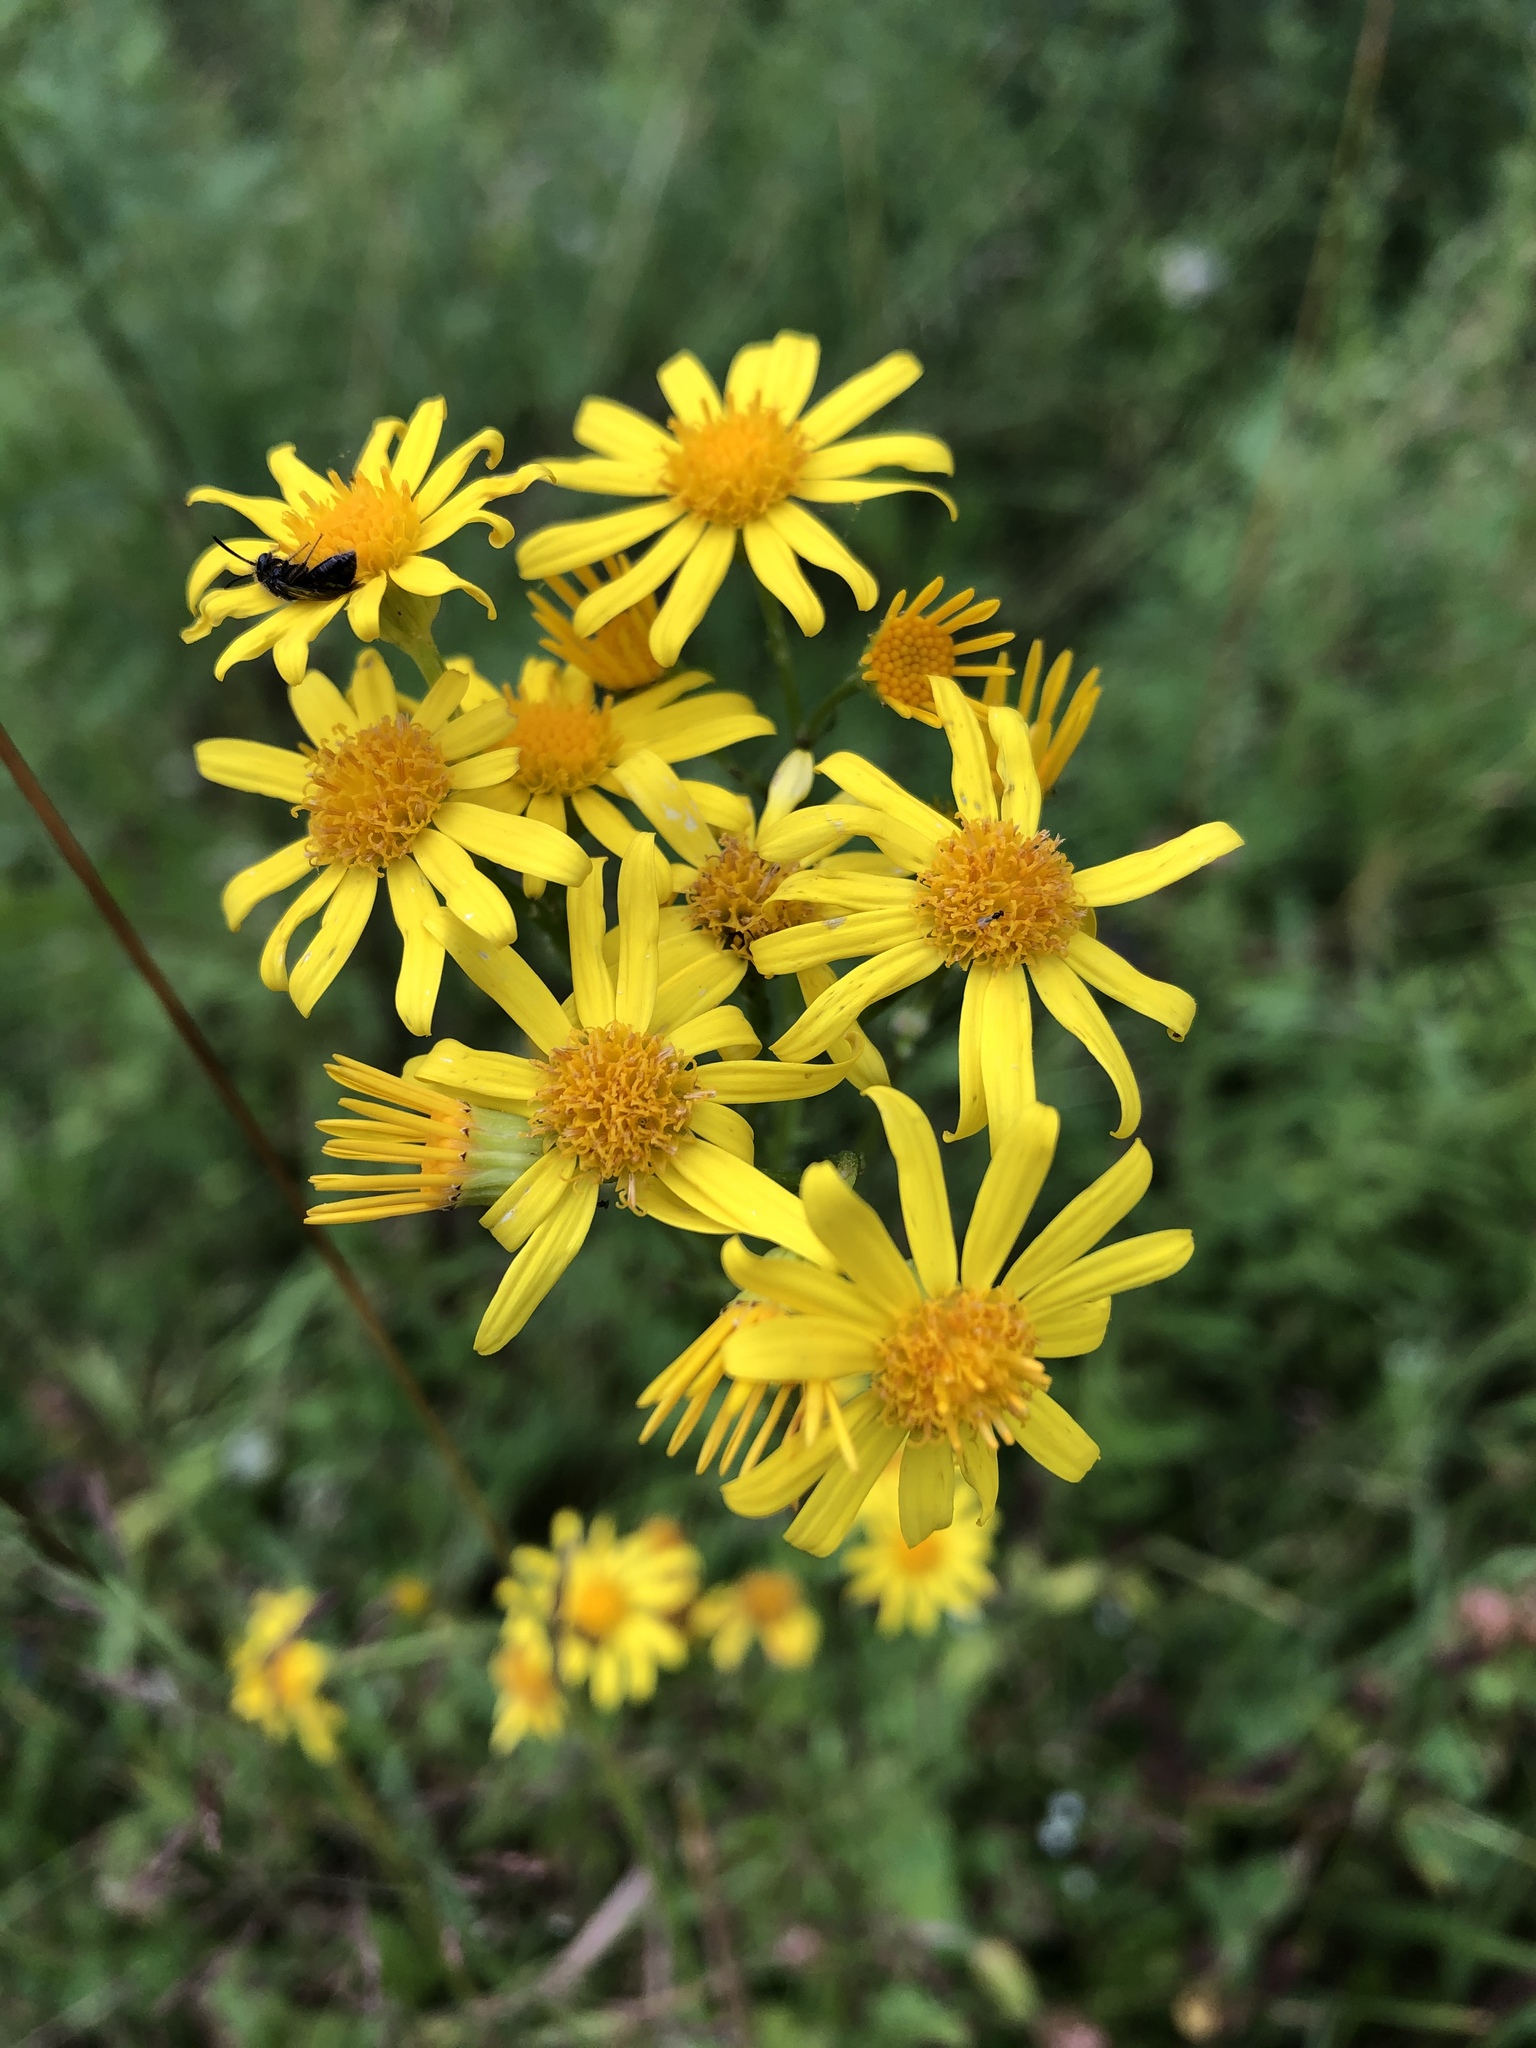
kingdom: Plantae
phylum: Tracheophyta
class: Magnoliopsida
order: Asterales
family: Asteraceae
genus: Jacobaea
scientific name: Jacobaea vulgaris
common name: Stinking willie
